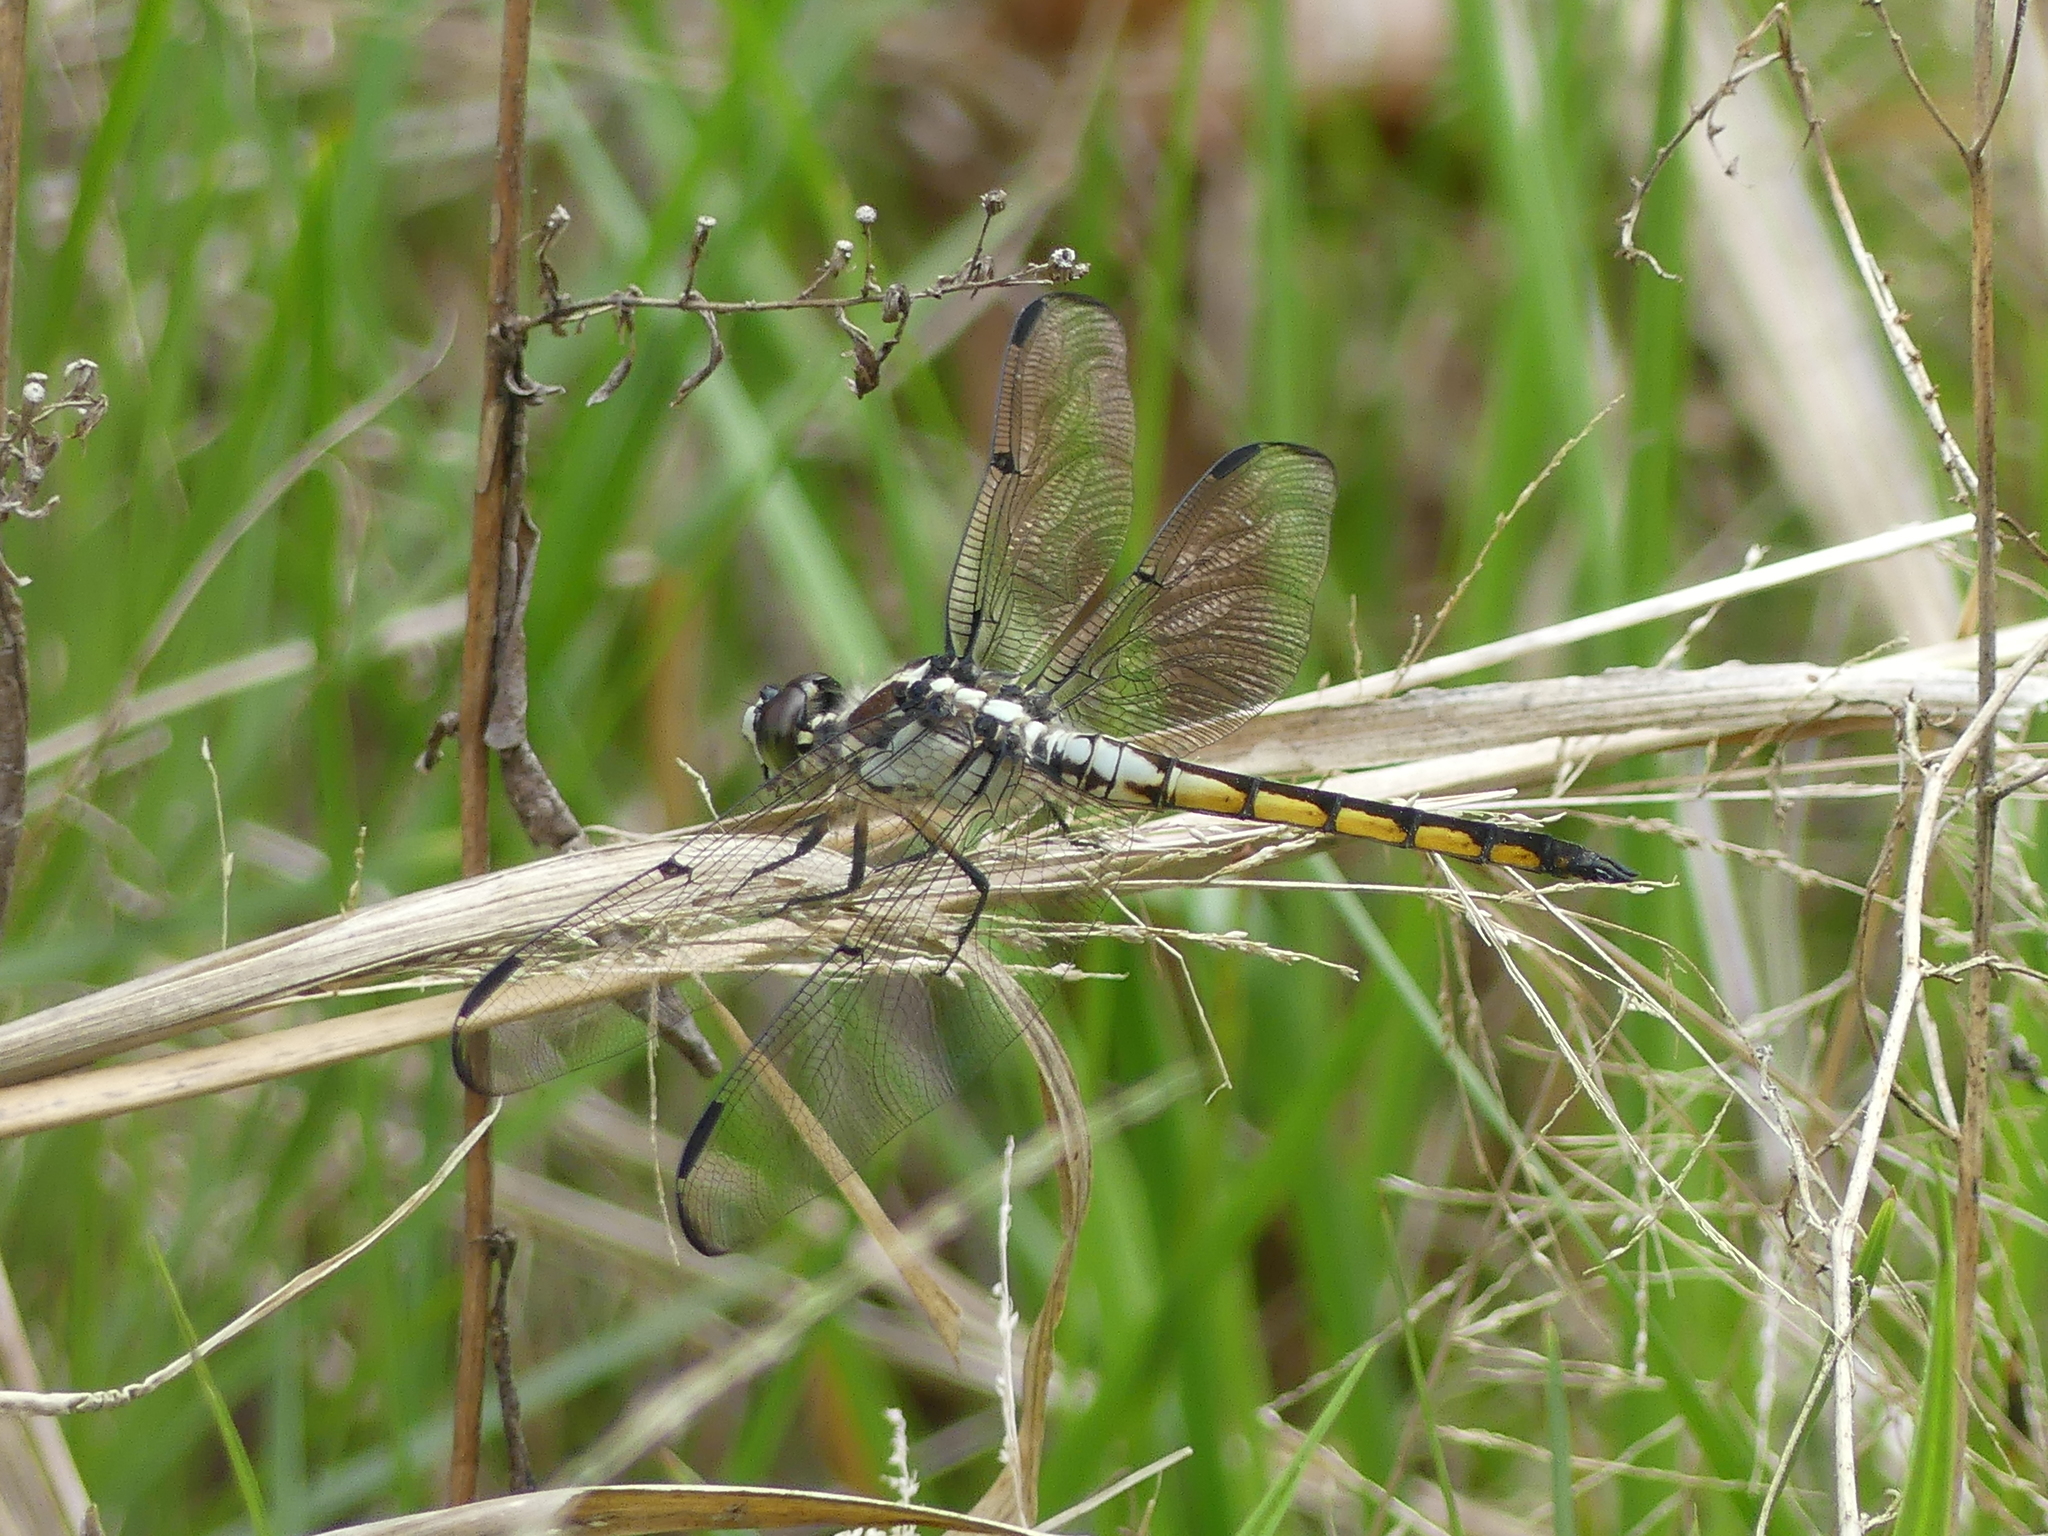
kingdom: Animalia
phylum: Arthropoda
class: Insecta
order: Odonata
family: Libellulidae
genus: Libellula
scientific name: Libellula vibrans
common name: Great blue skimmer
